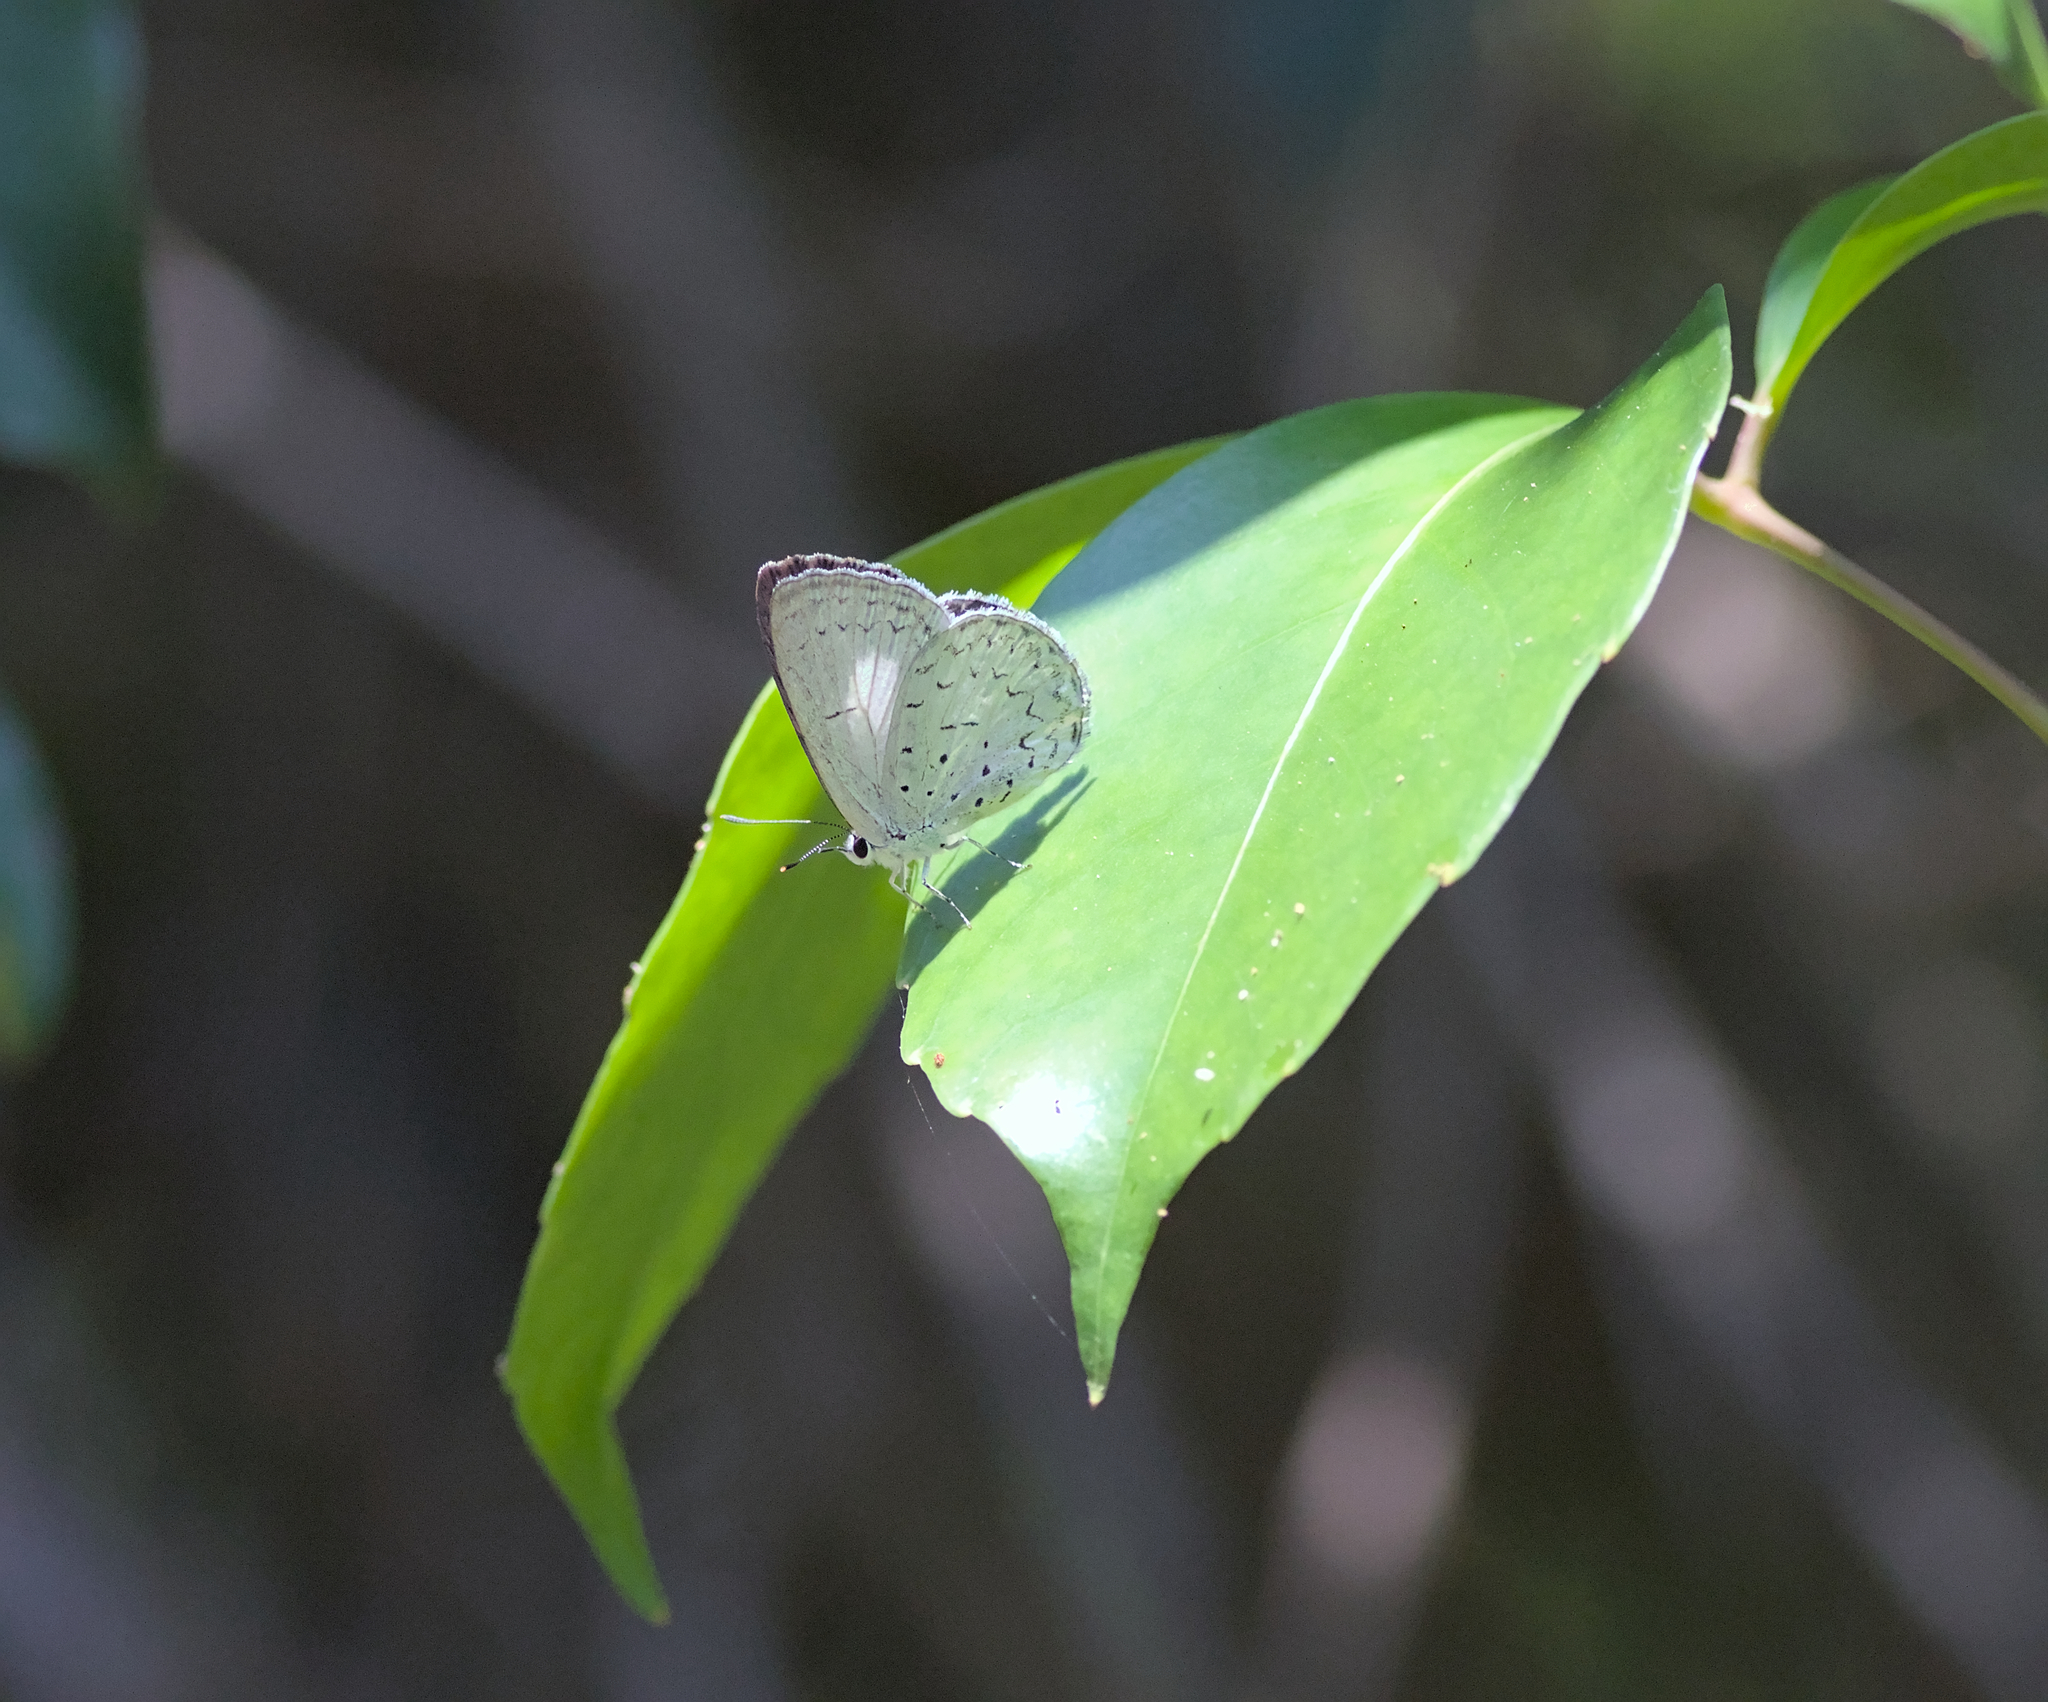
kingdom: Animalia
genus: Eirmocides
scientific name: Eirmocides
